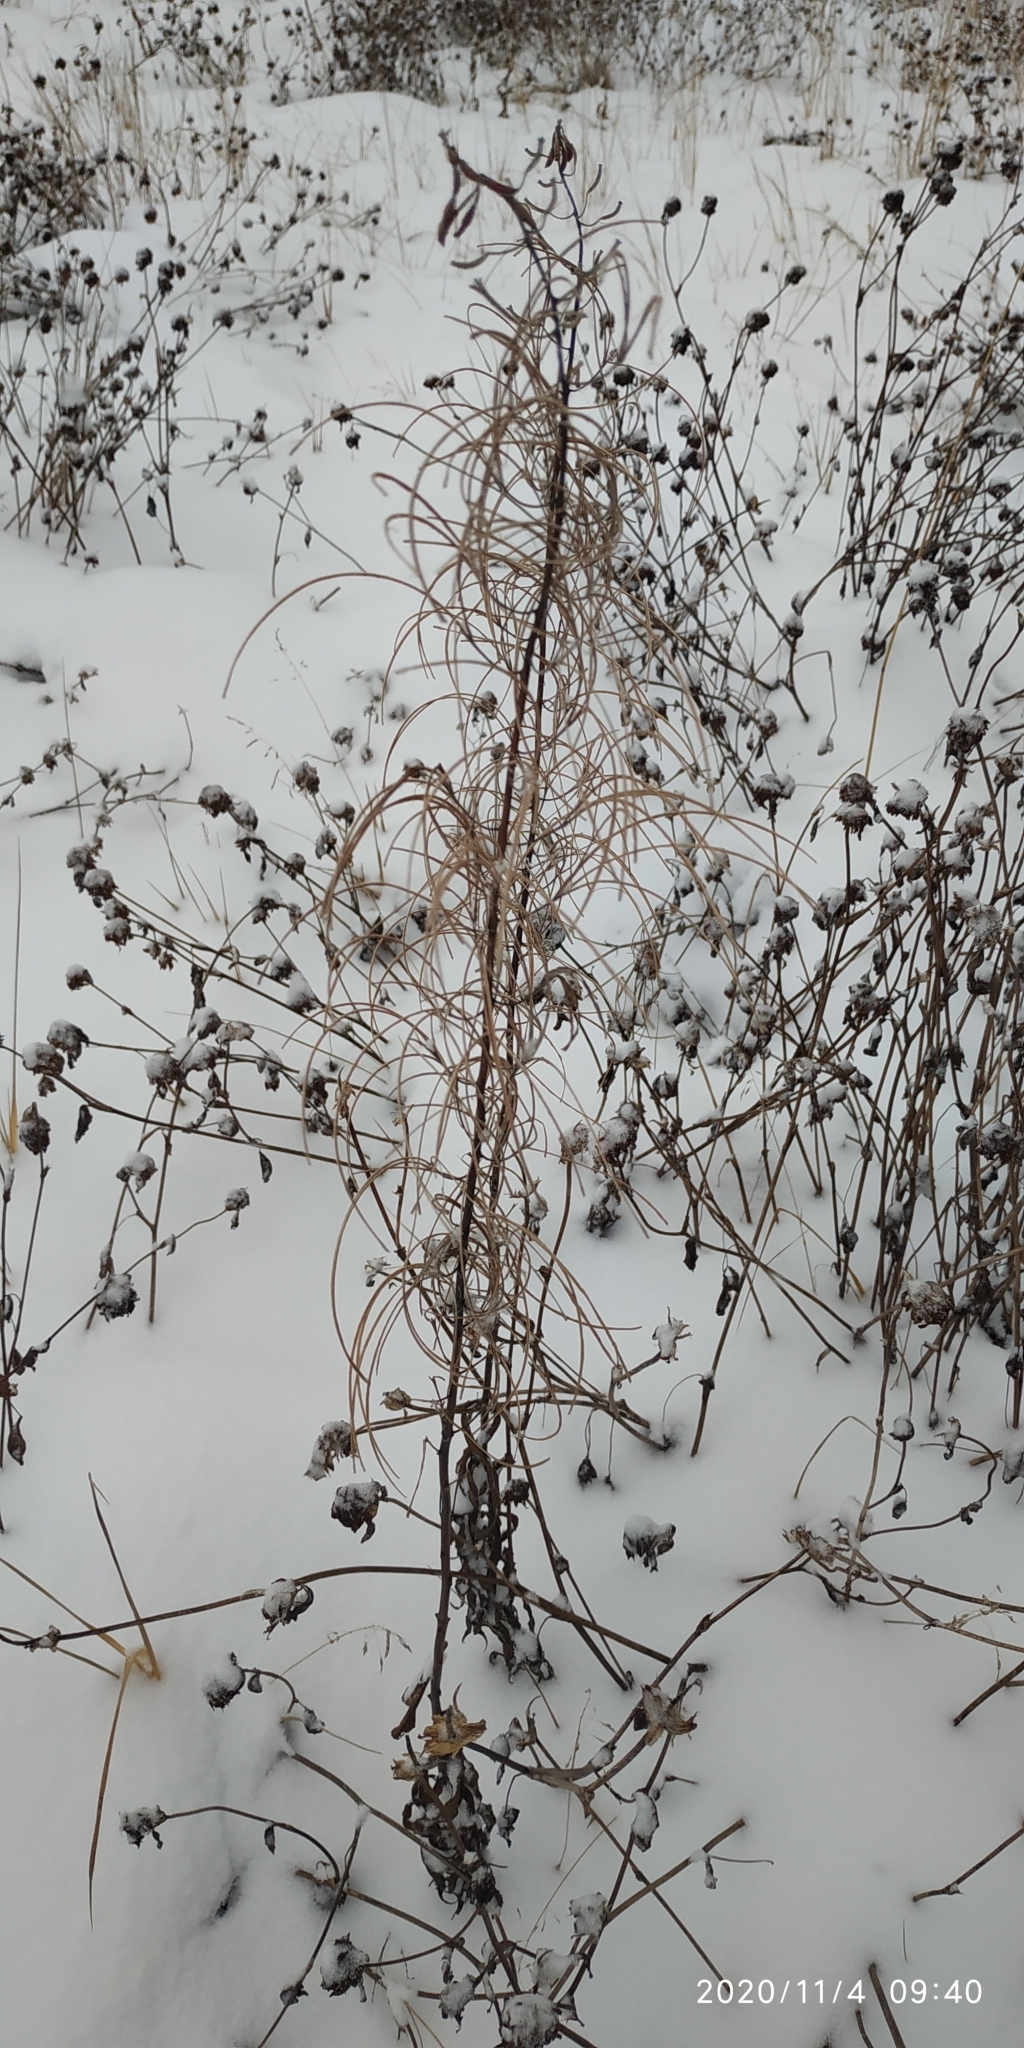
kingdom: Plantae
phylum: Tracheophyta
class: Magnoliopsida
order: Myrtales
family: Onagraceae
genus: Chamaenerion
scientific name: Chamaenerion angustifolium
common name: Fireweed
